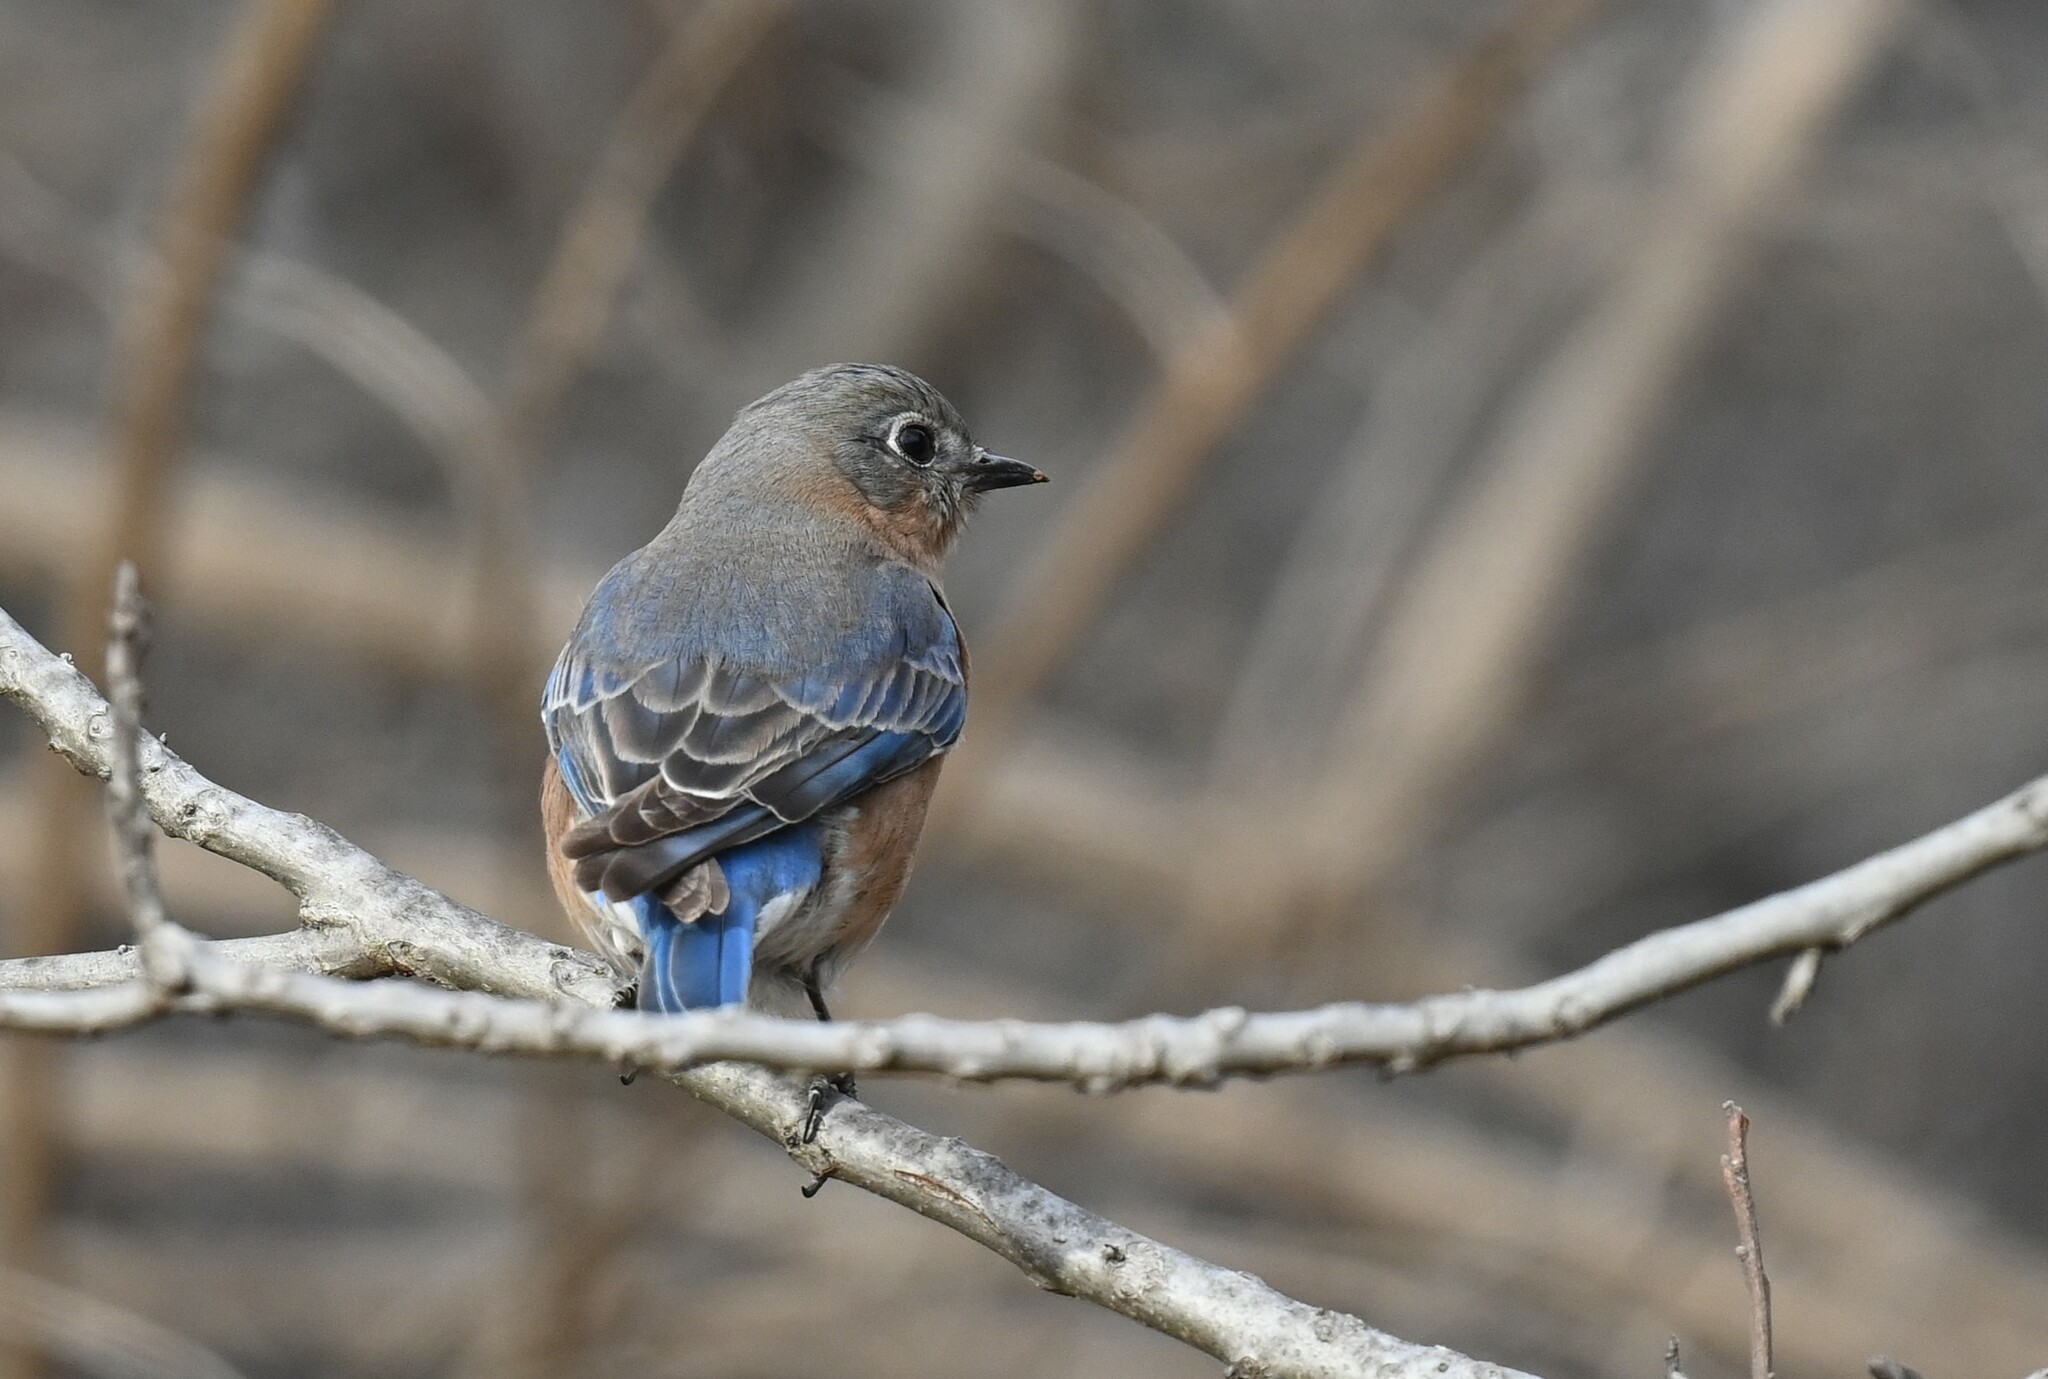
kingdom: Animalia
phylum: Chordata
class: Aves
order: Passeriformes
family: Turdidae
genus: Sialia
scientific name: Sialia sialis
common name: Eastern bluebird
